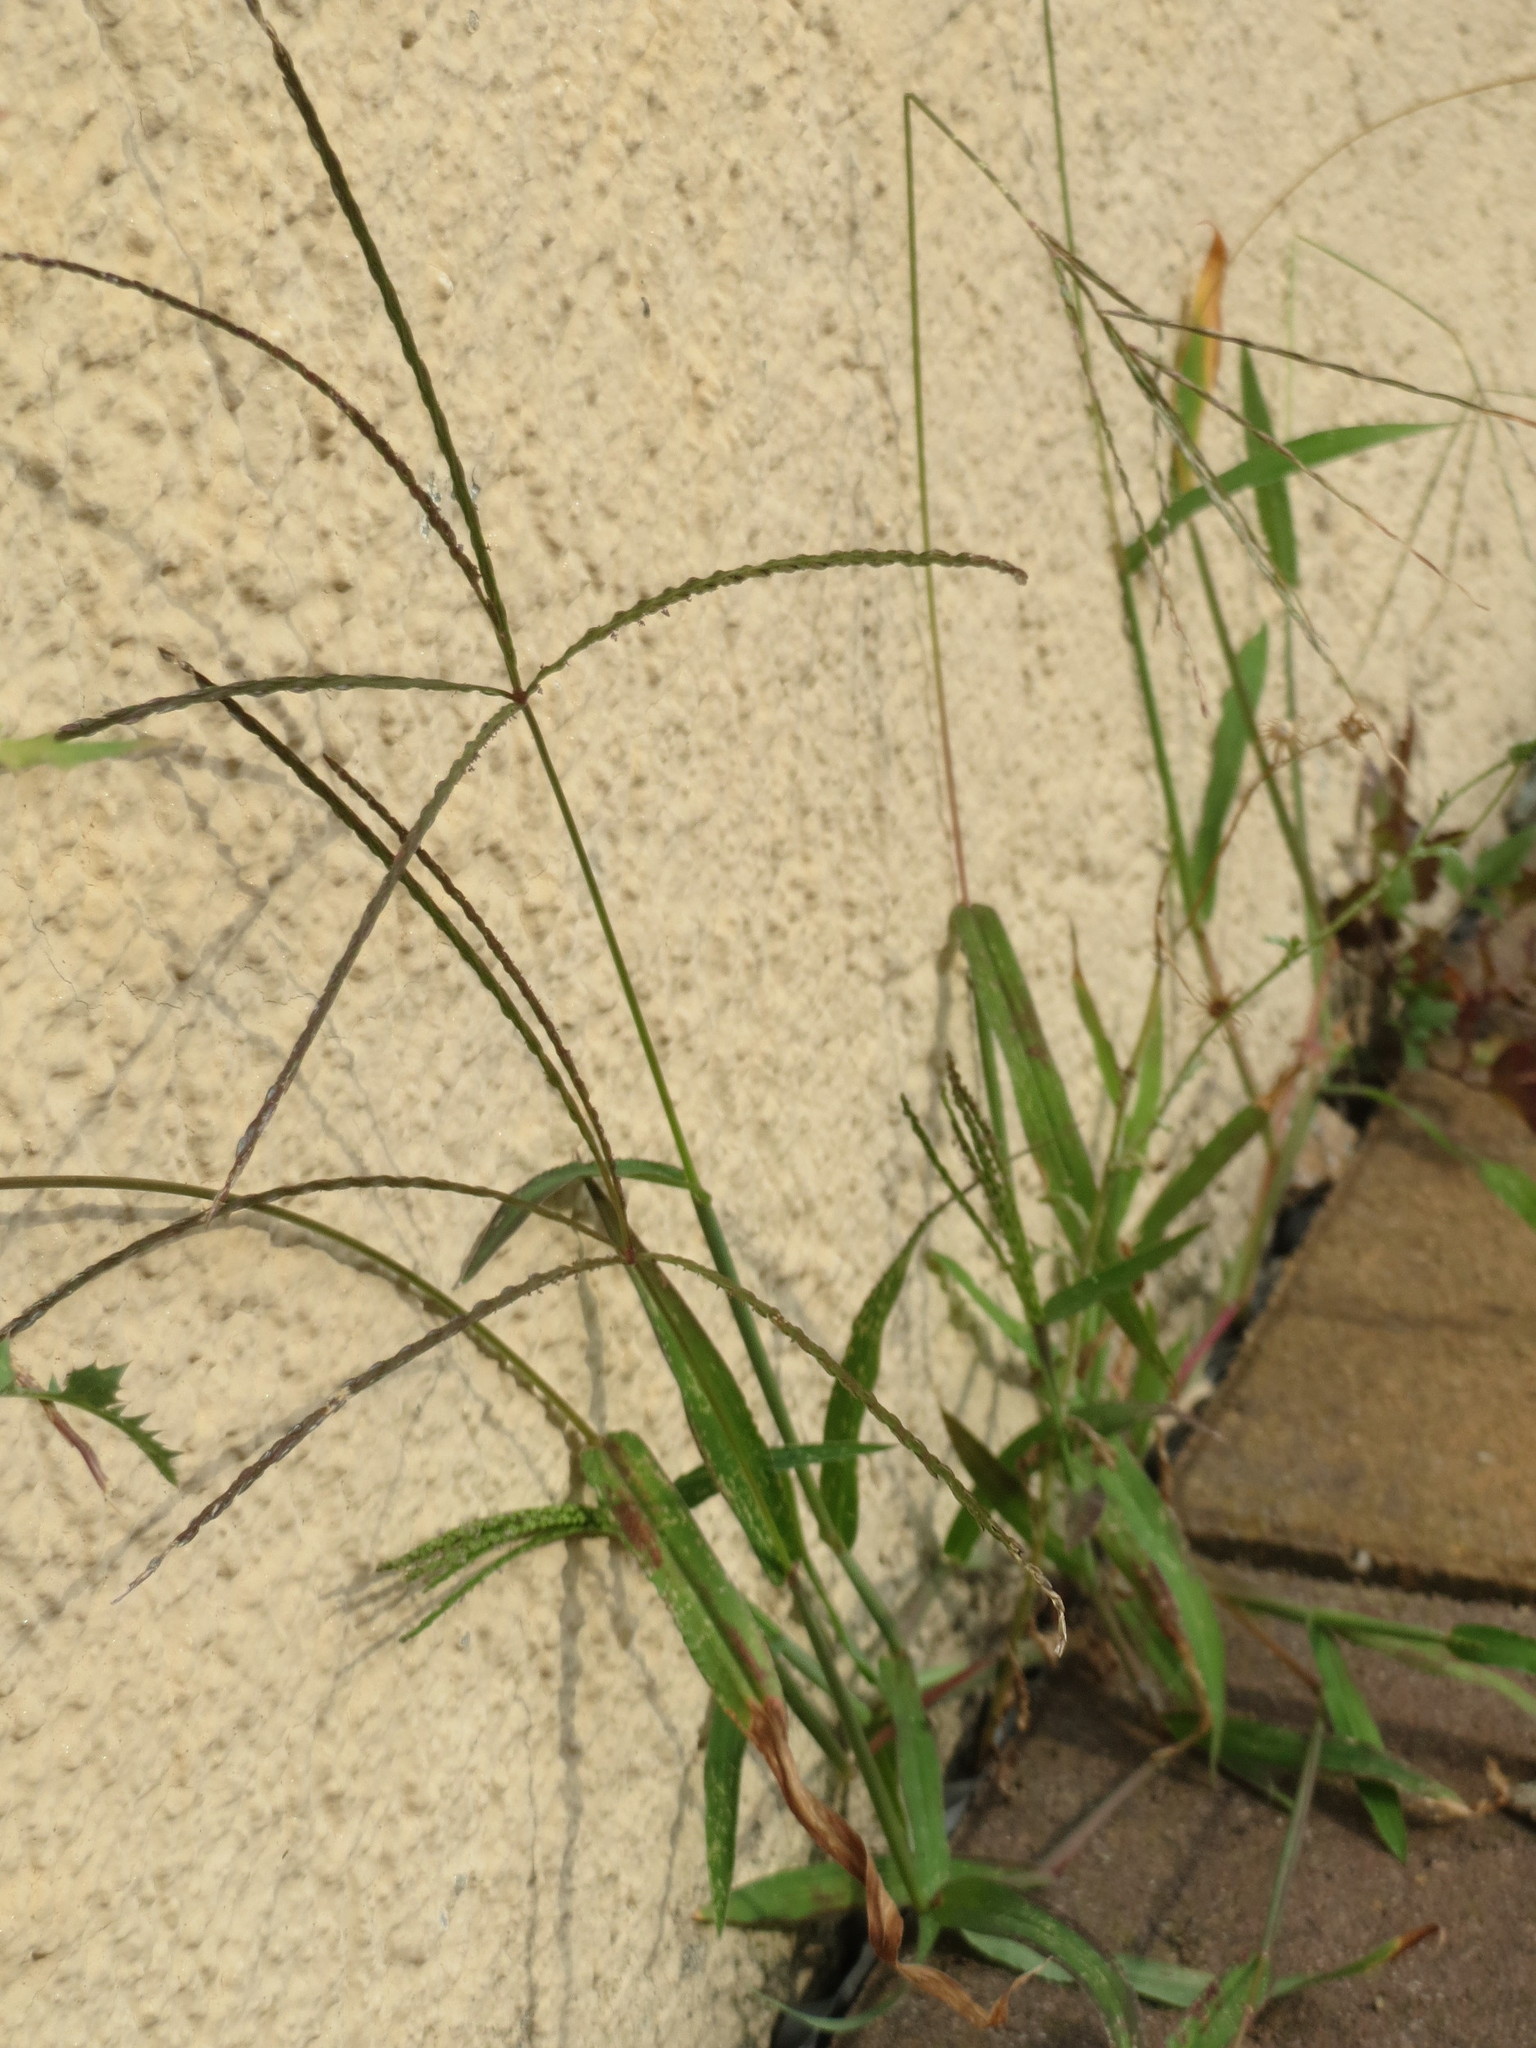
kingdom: Plantae
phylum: Tracheophyta
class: Liliopsida
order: Poales
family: Poaceae
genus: Digitaria
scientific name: Digitaria sanguinalis
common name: Hairy crabgrass
